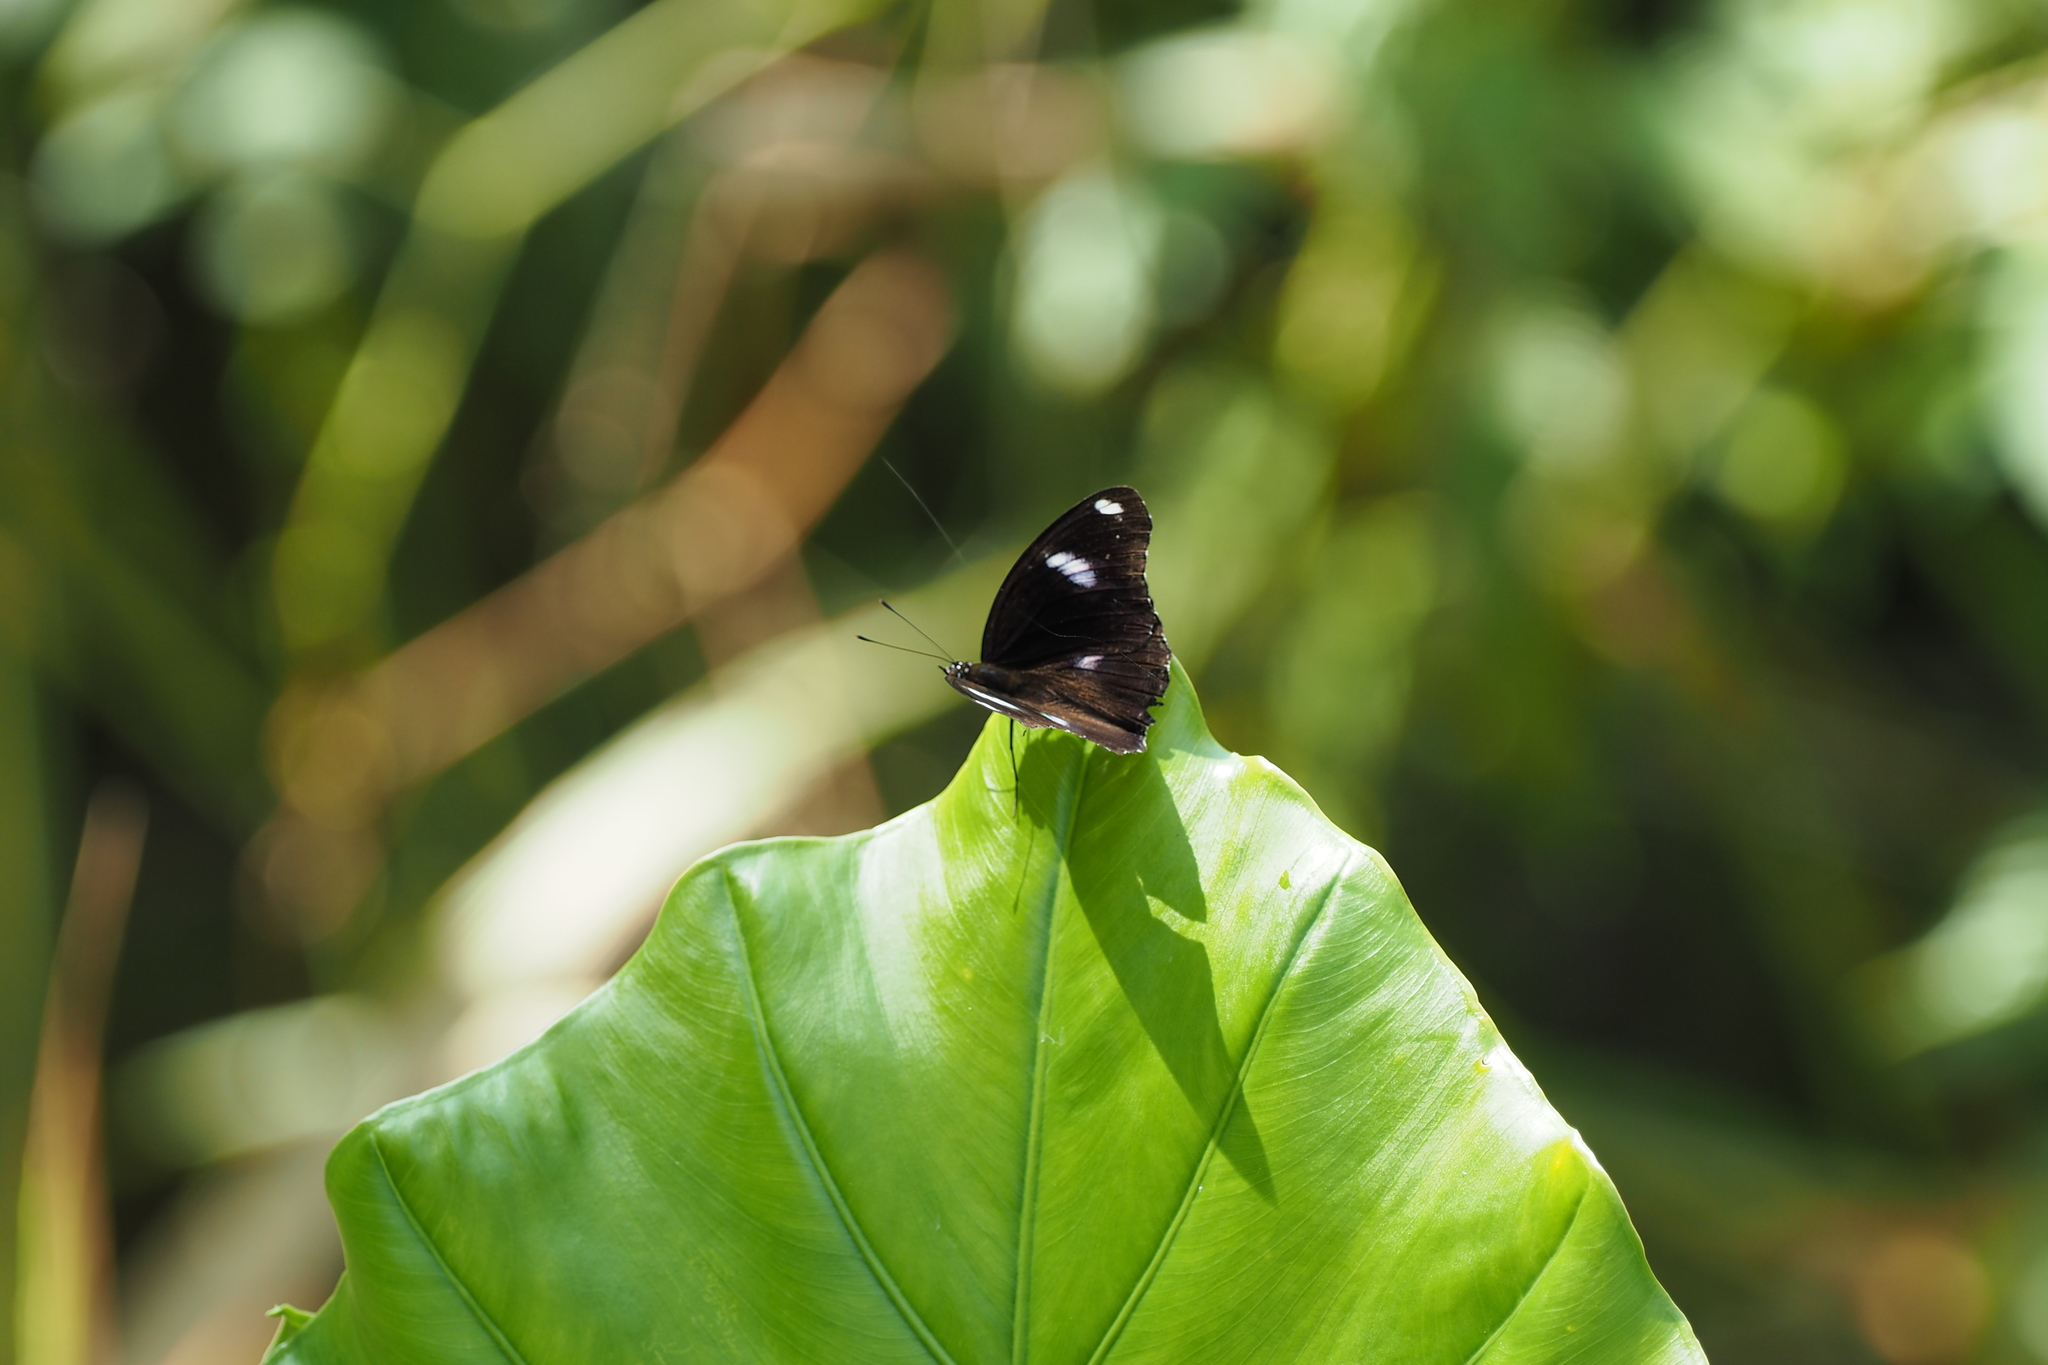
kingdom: Animalia
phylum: Arthropoda
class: Insecta
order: Lepidoptera
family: Nymphalidae
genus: Hypolimnas
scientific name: Hypolimnas bolina
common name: Great eggfly
